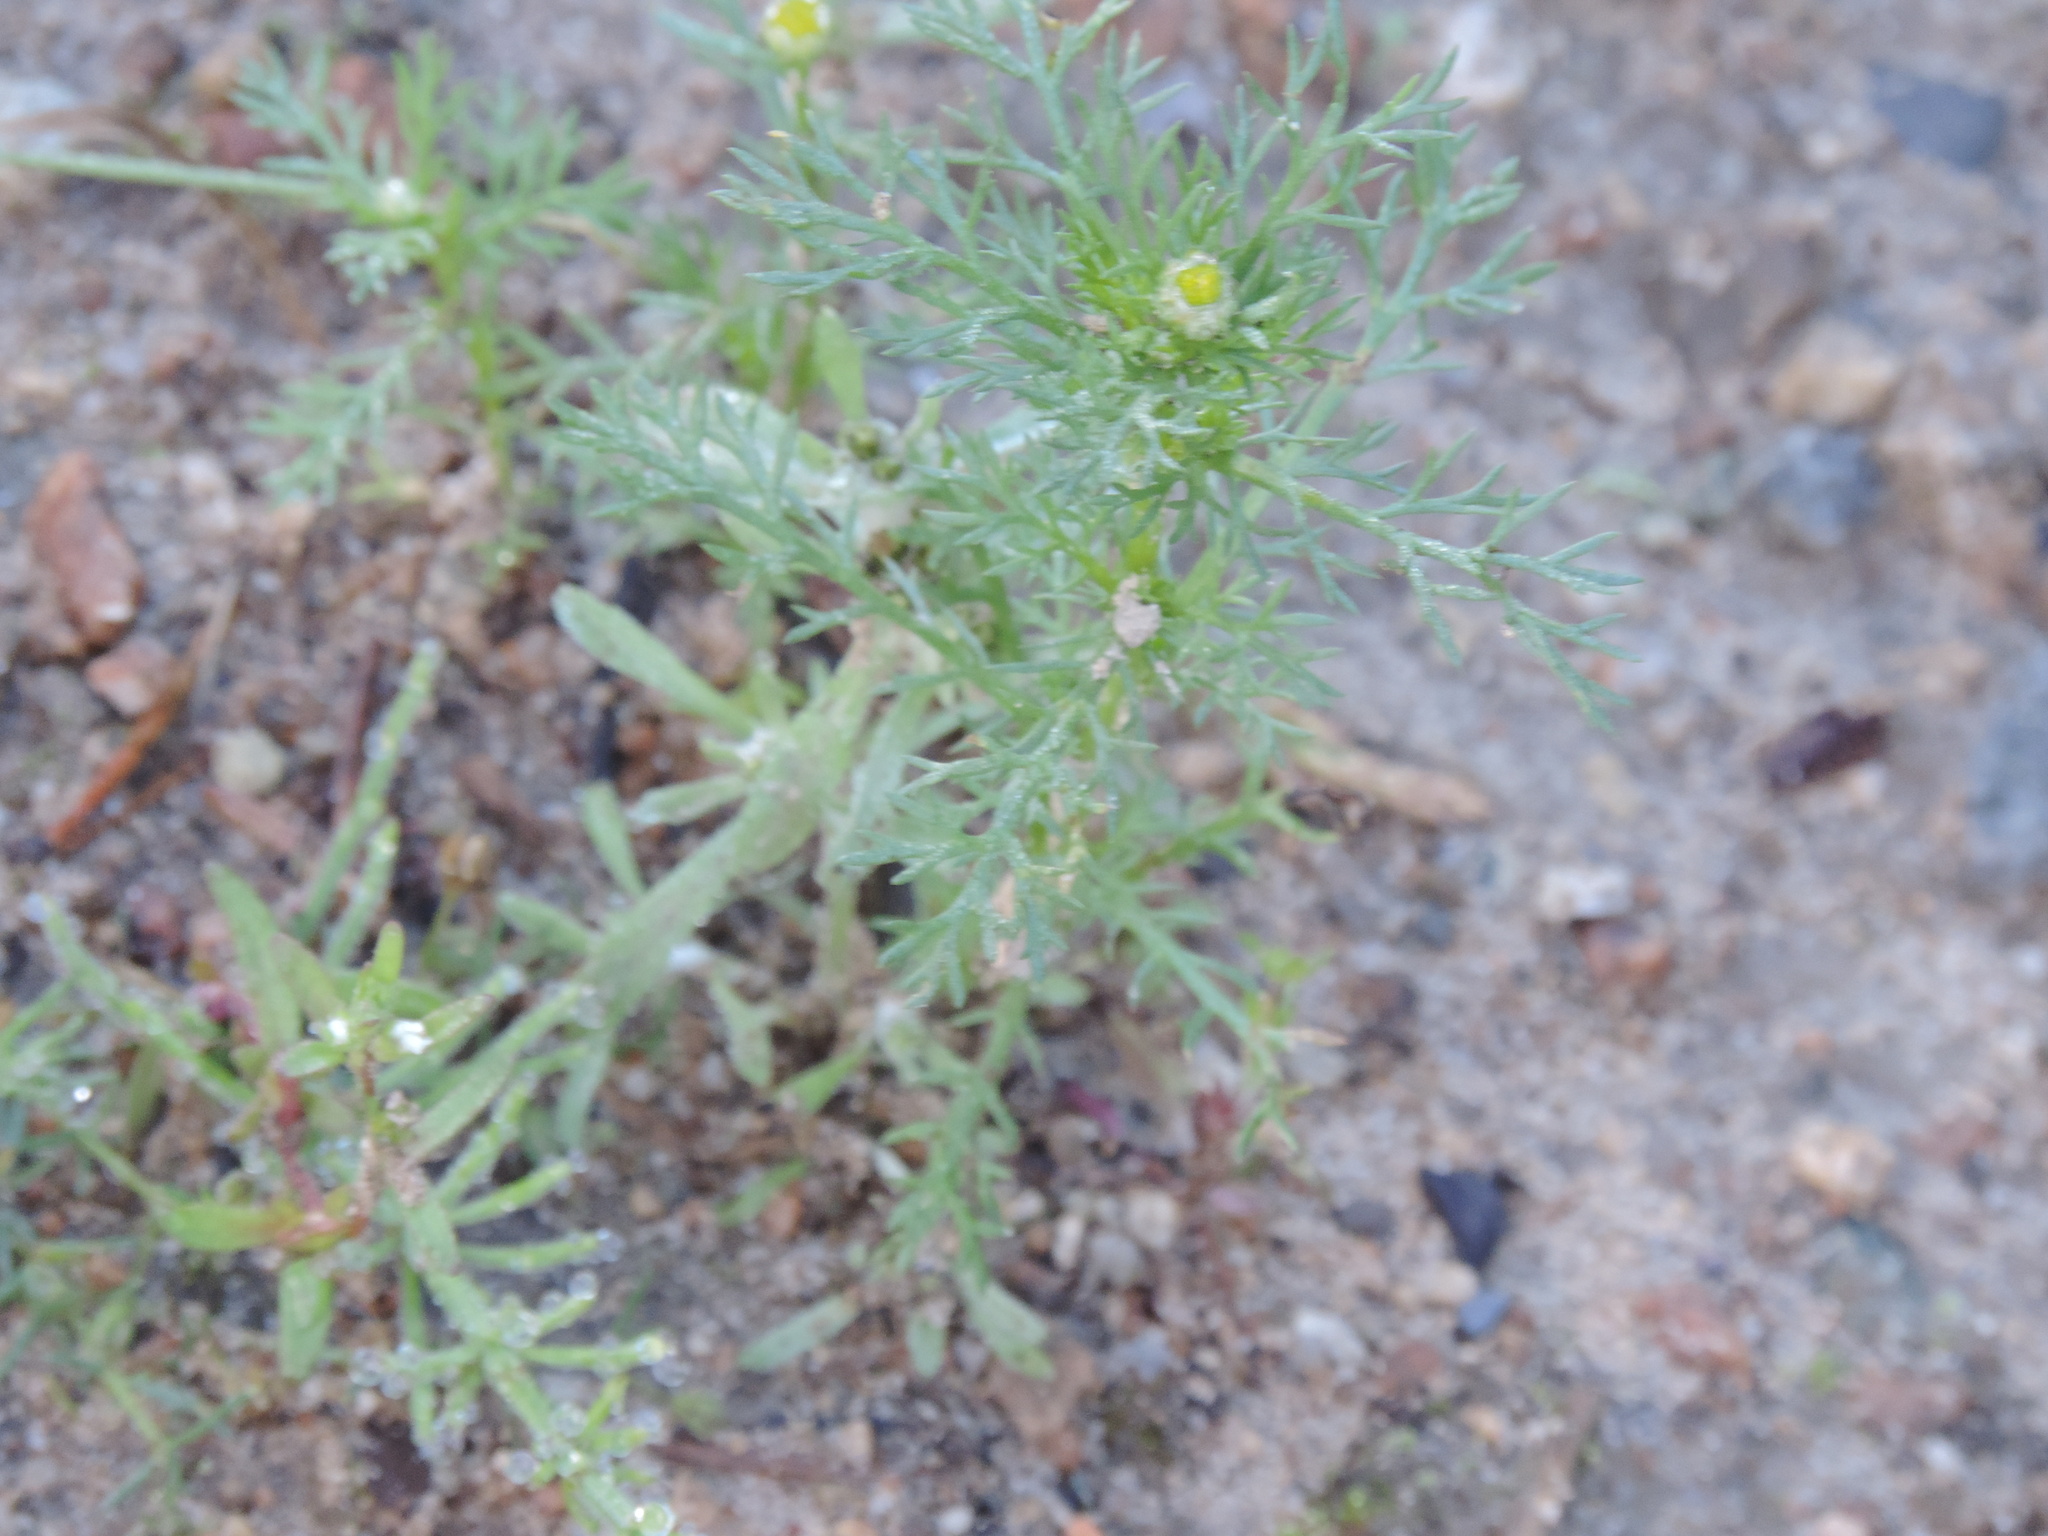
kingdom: Plantae
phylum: Tracheophyta
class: Magnoliopsida
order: Asterales
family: Asteraceae
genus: Matricaria
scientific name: Matricaria discoidea
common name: Disc mayweed
